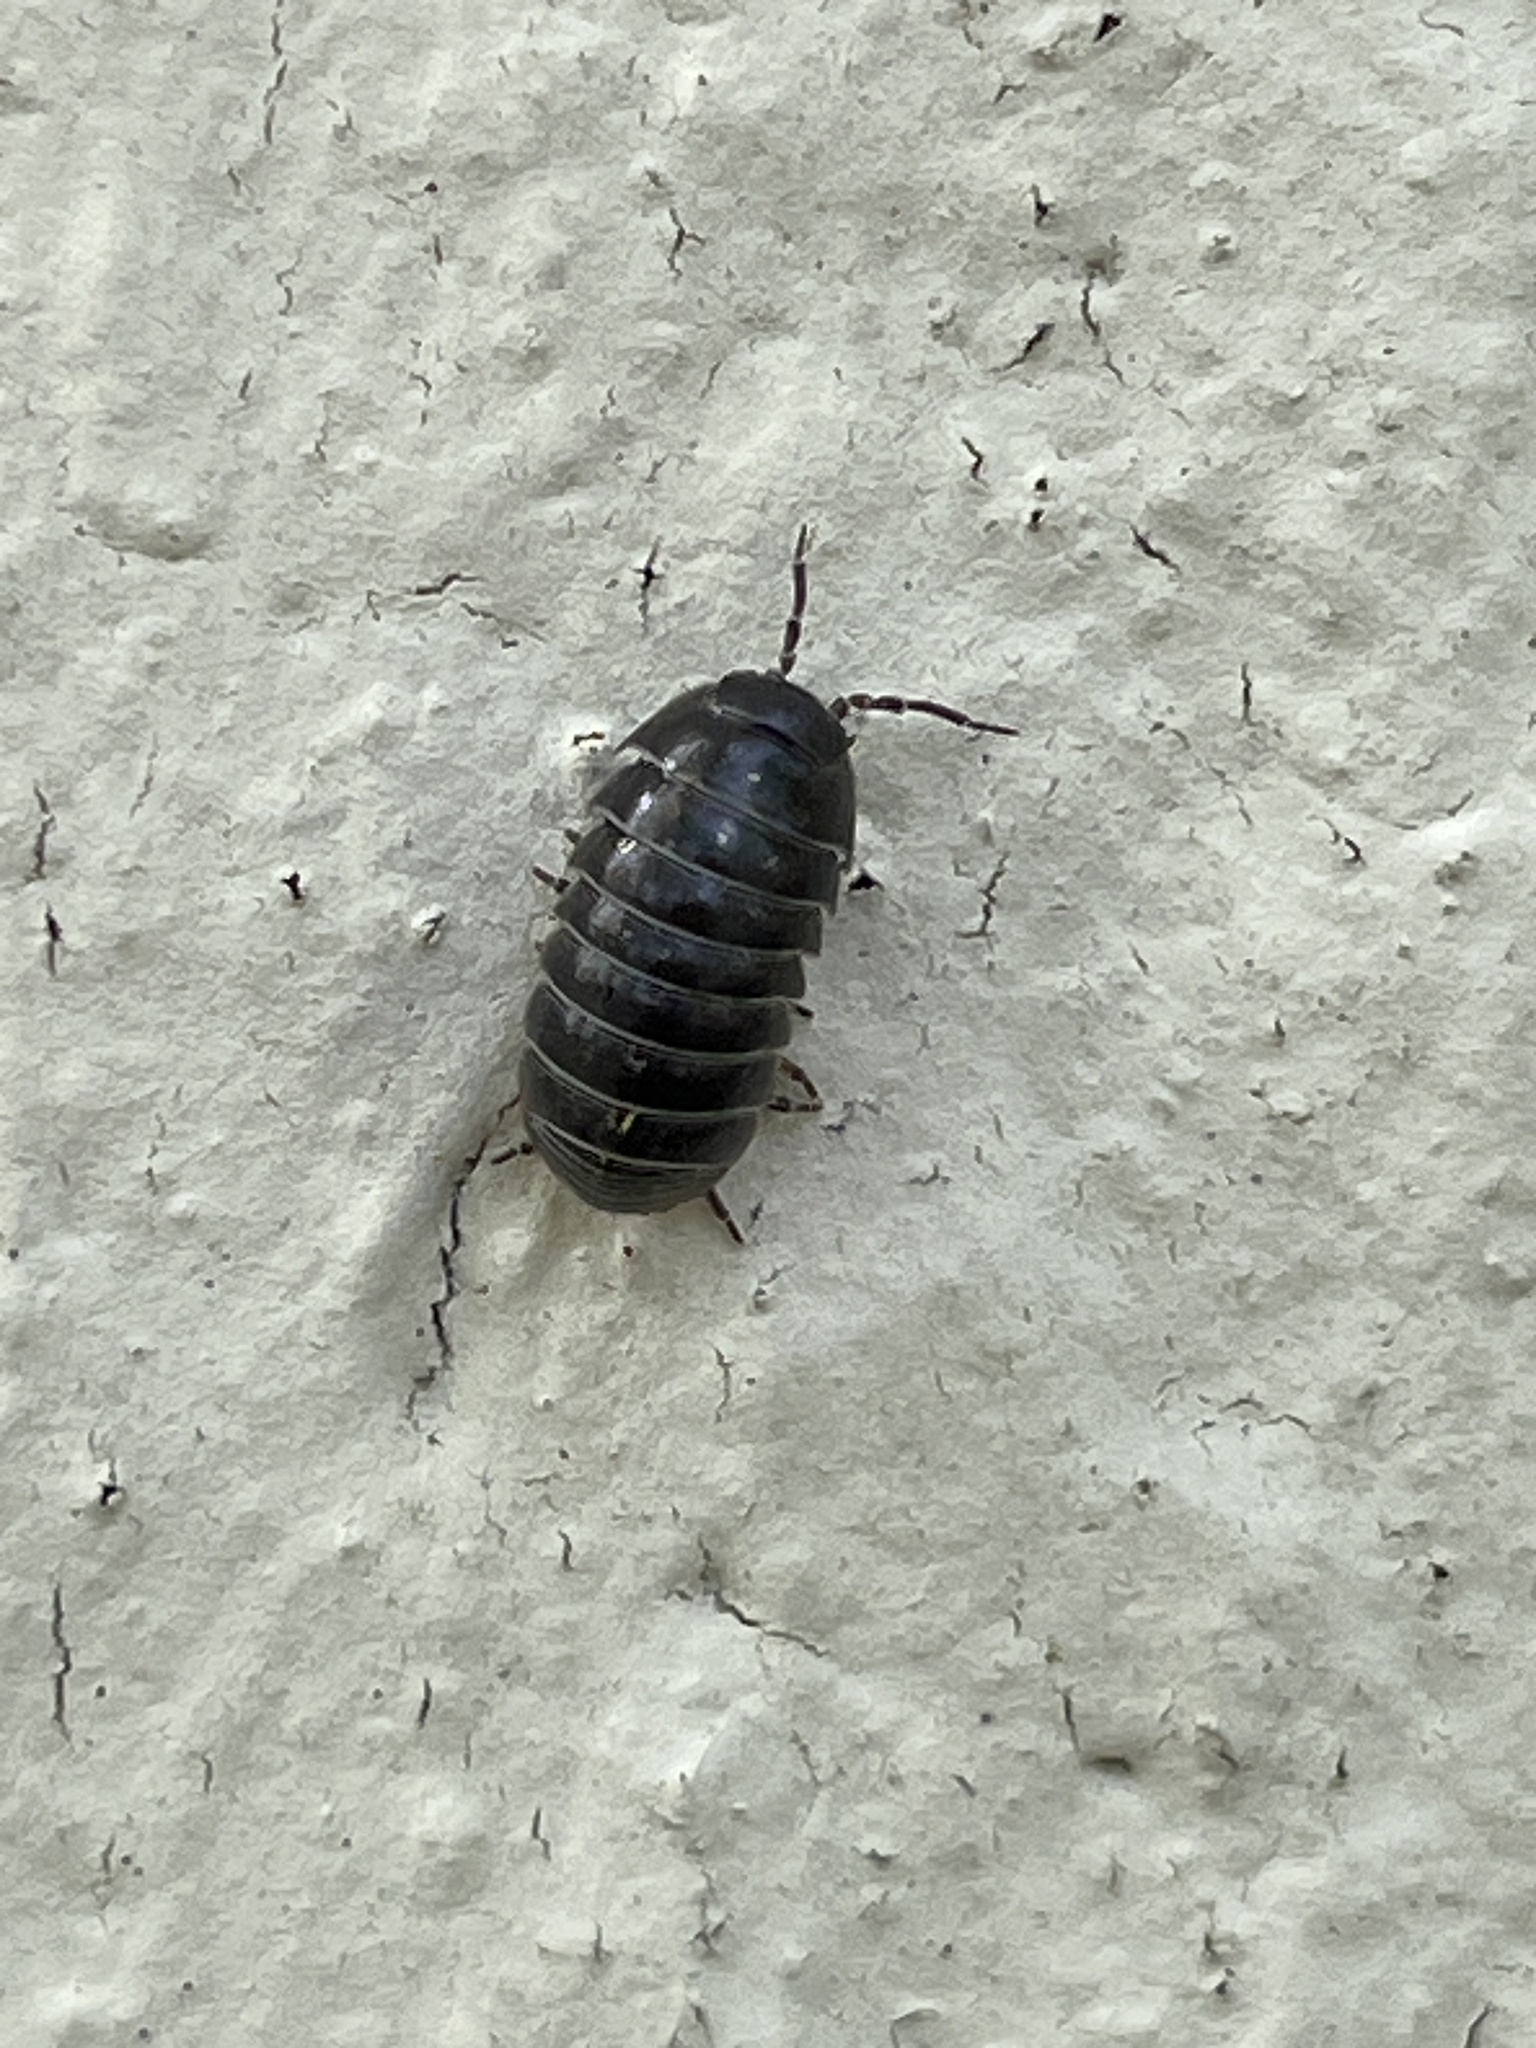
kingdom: Animalia
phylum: Arthropoda
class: Malacostraca
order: Isopoda
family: Armadillidiidae
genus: Armadillidium
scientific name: Armadillidium vulgare
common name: Common pill woodlouse
